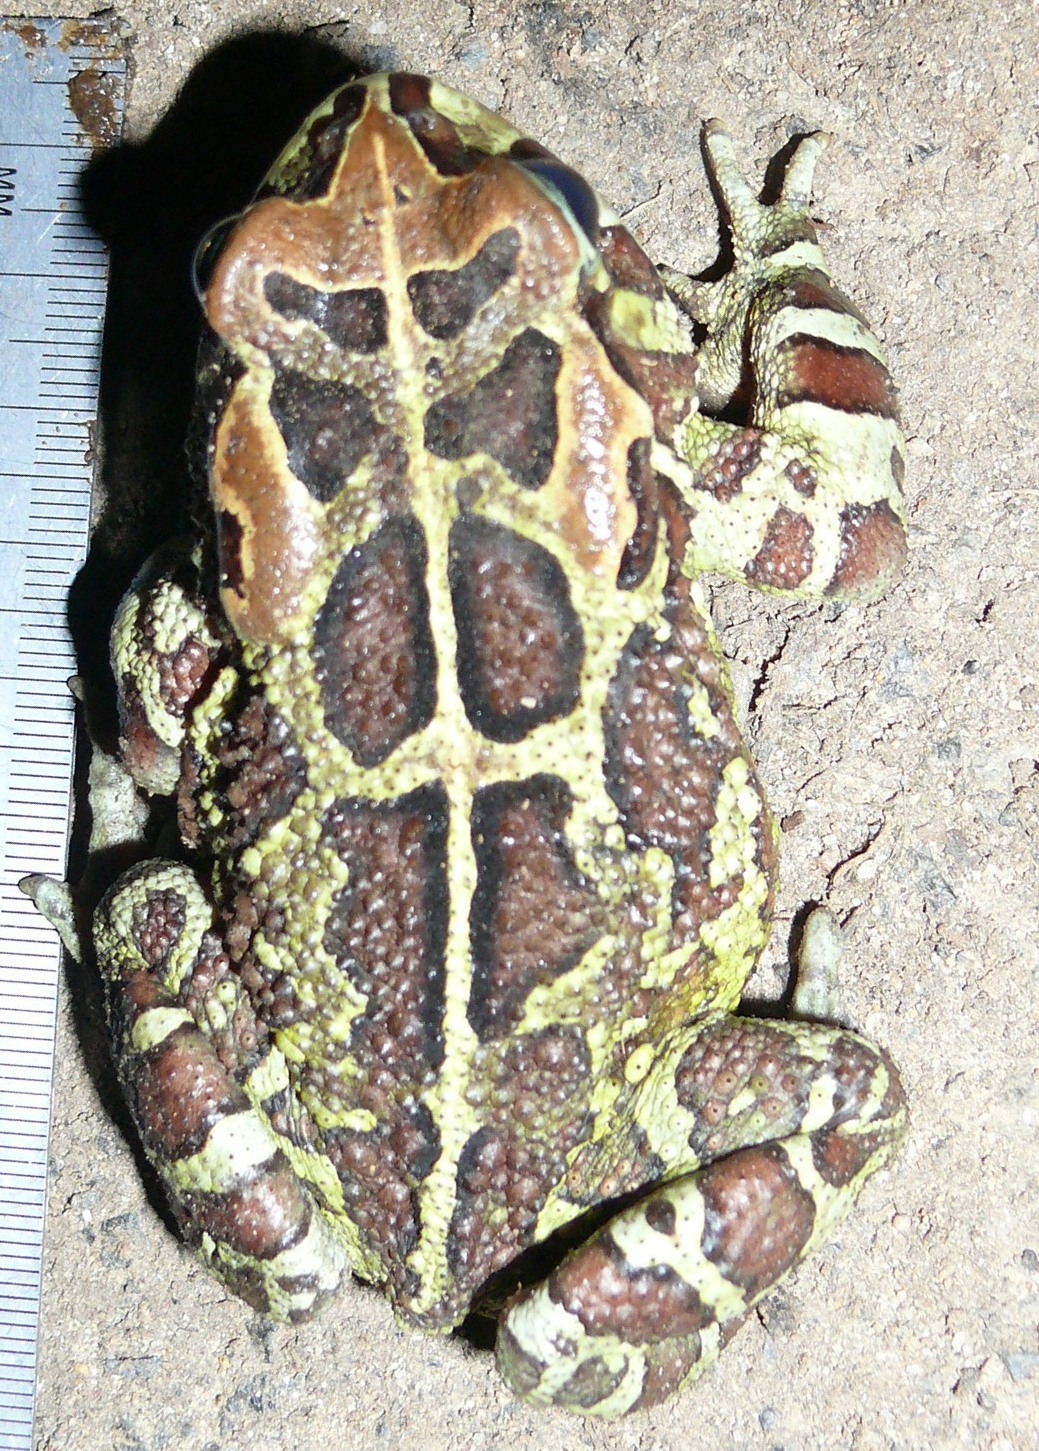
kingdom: Animalia
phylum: Chordata
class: Amphibia
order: Anura
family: Bufonidae
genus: Sclerophrys
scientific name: Sclerophrys pantherina
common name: Panther toad
